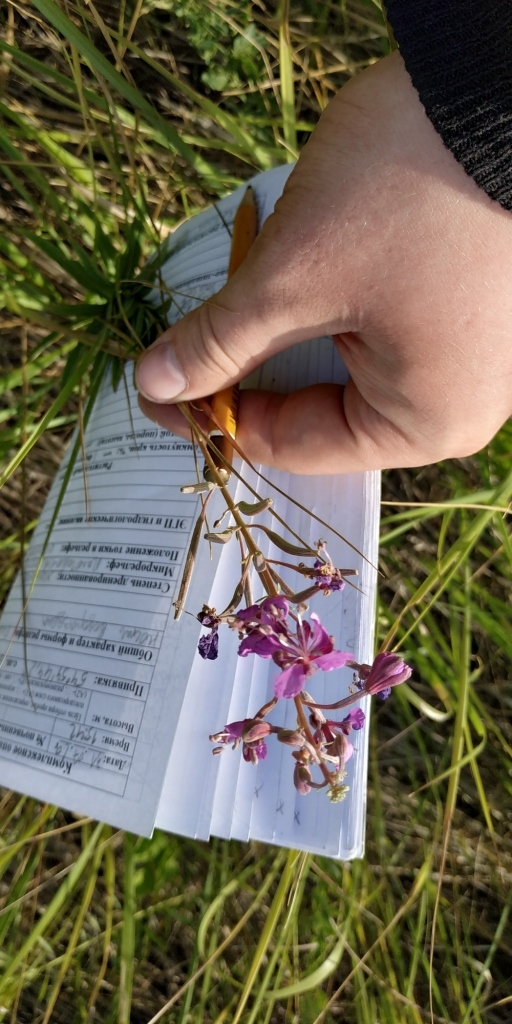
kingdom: Plantae
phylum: Tracheophyta
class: Magnoliopsida
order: Myrtales
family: Onagraceae
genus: Chamaenerion
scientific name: Chamaenerion angustifolium
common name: Fireweed
